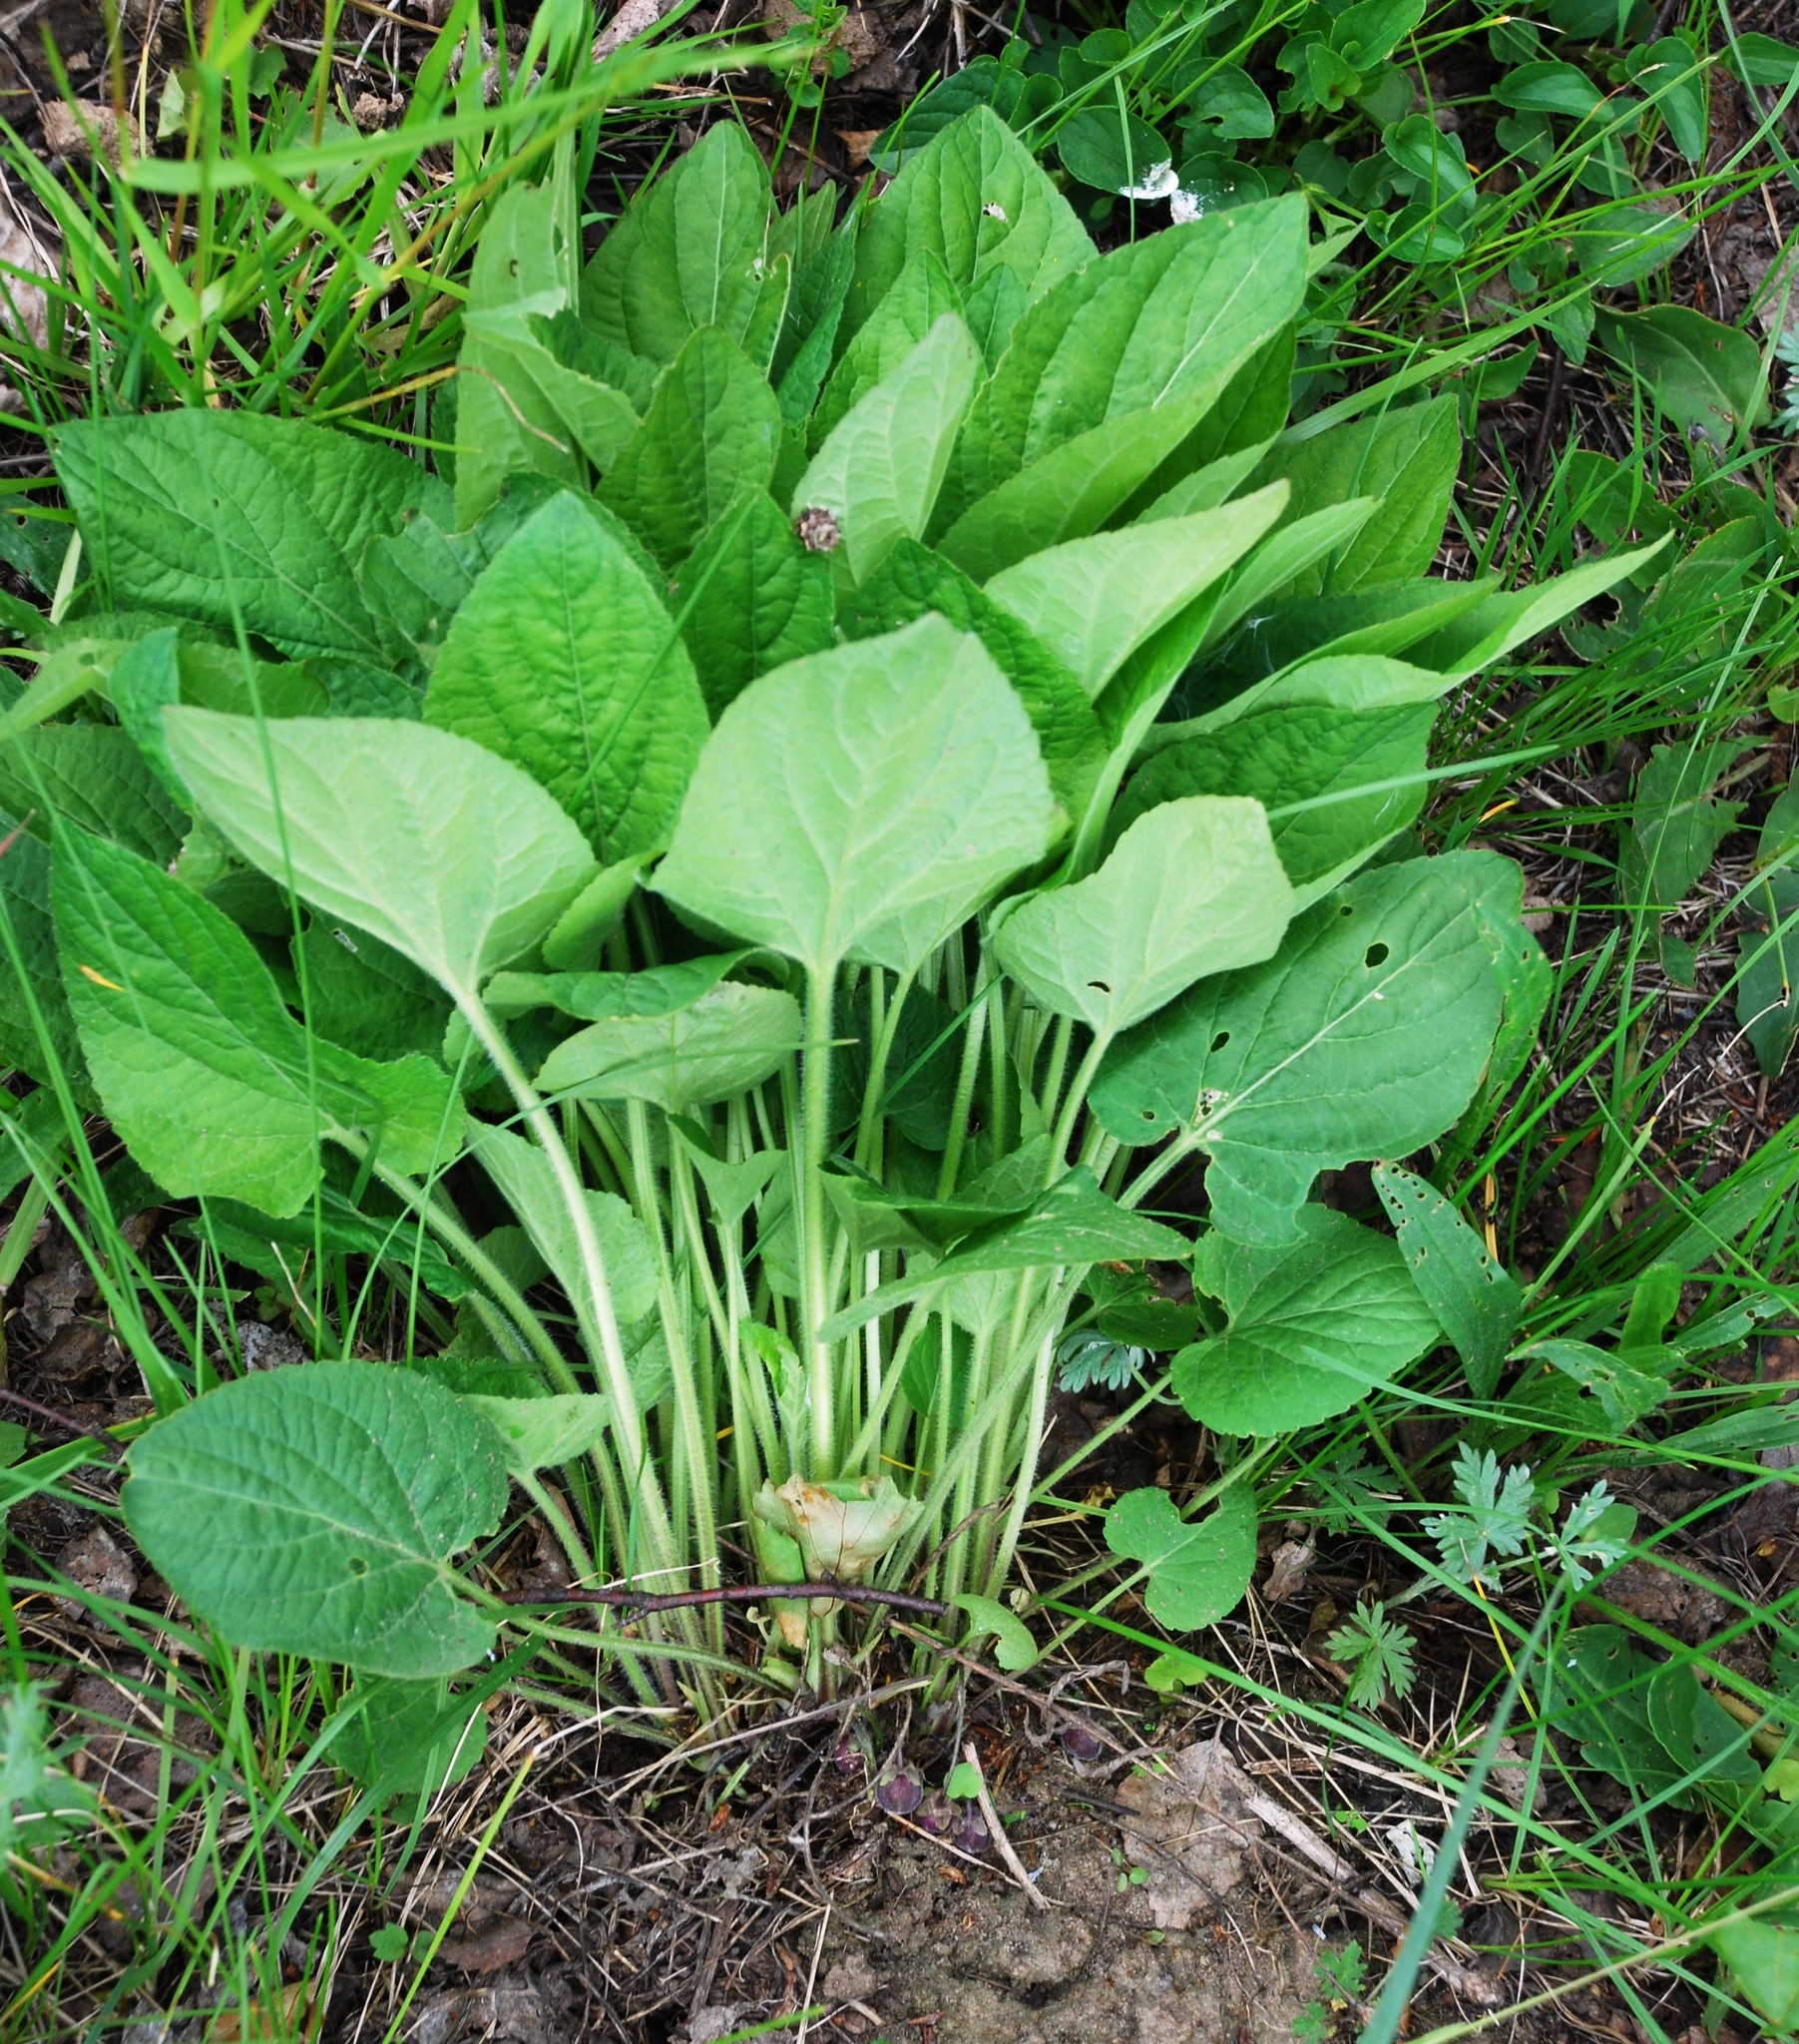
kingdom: Plantae
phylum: Tracheophyta
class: Magnoliopsida
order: Malpighiales
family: Violaceae
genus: Viola
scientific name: Viola hirta
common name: Hairy violet
